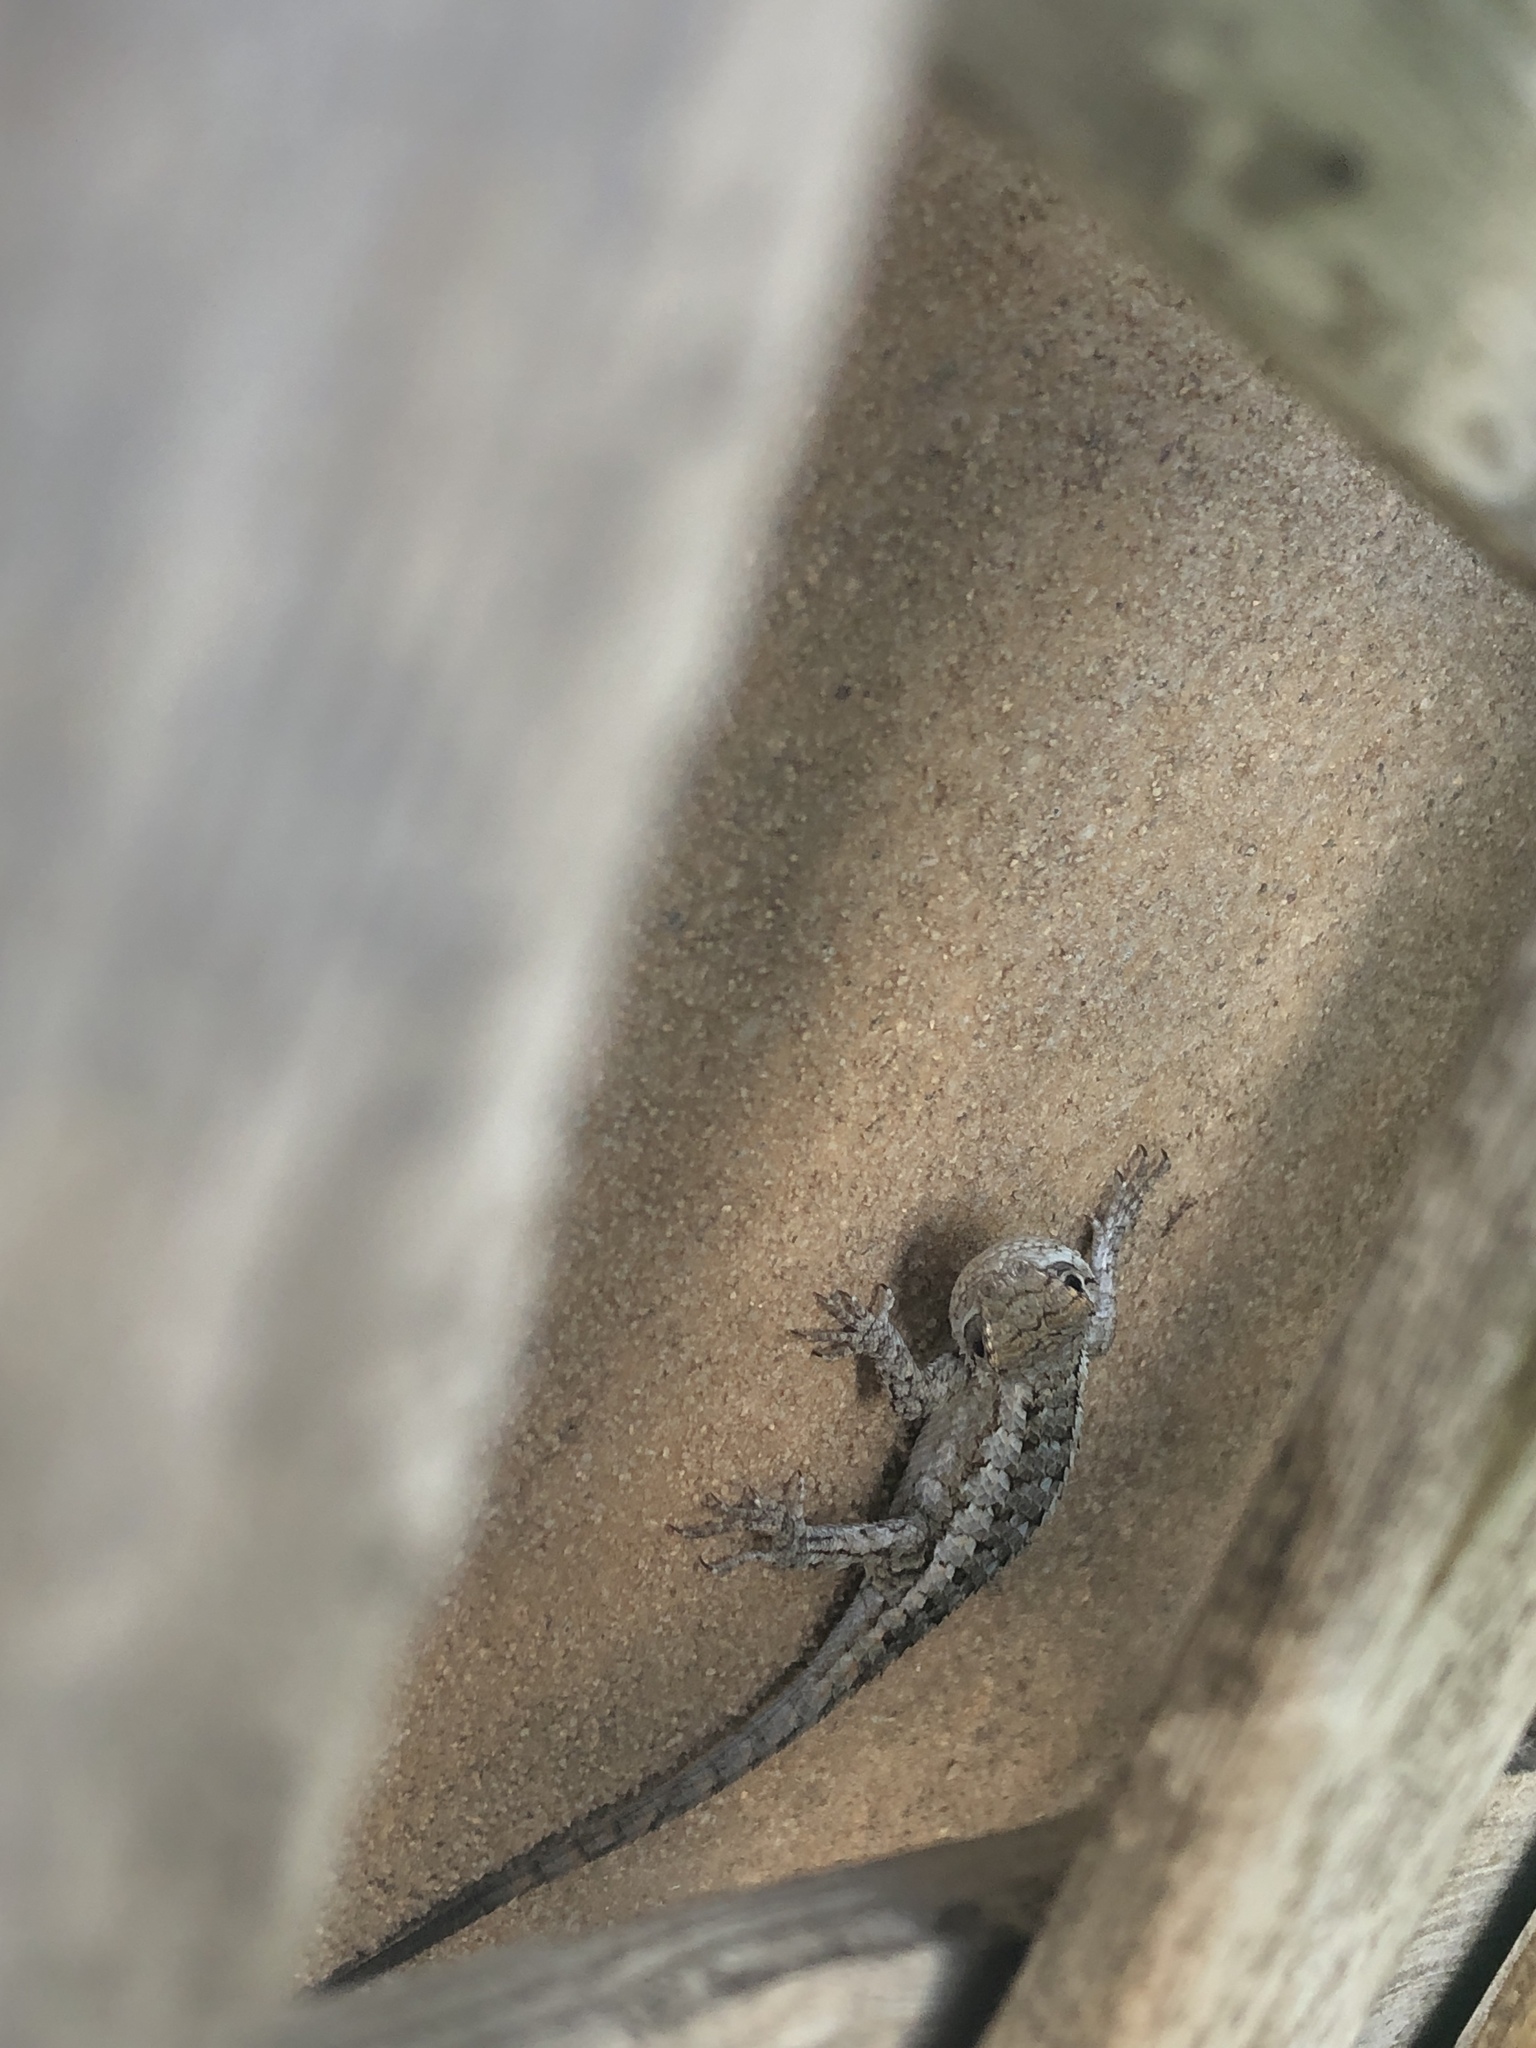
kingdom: Animalia
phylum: Chordata
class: Squamata
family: Phrynosomatidae
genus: Sceloporus
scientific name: Sceloporus olivaceus
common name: Texas spiny lizard
